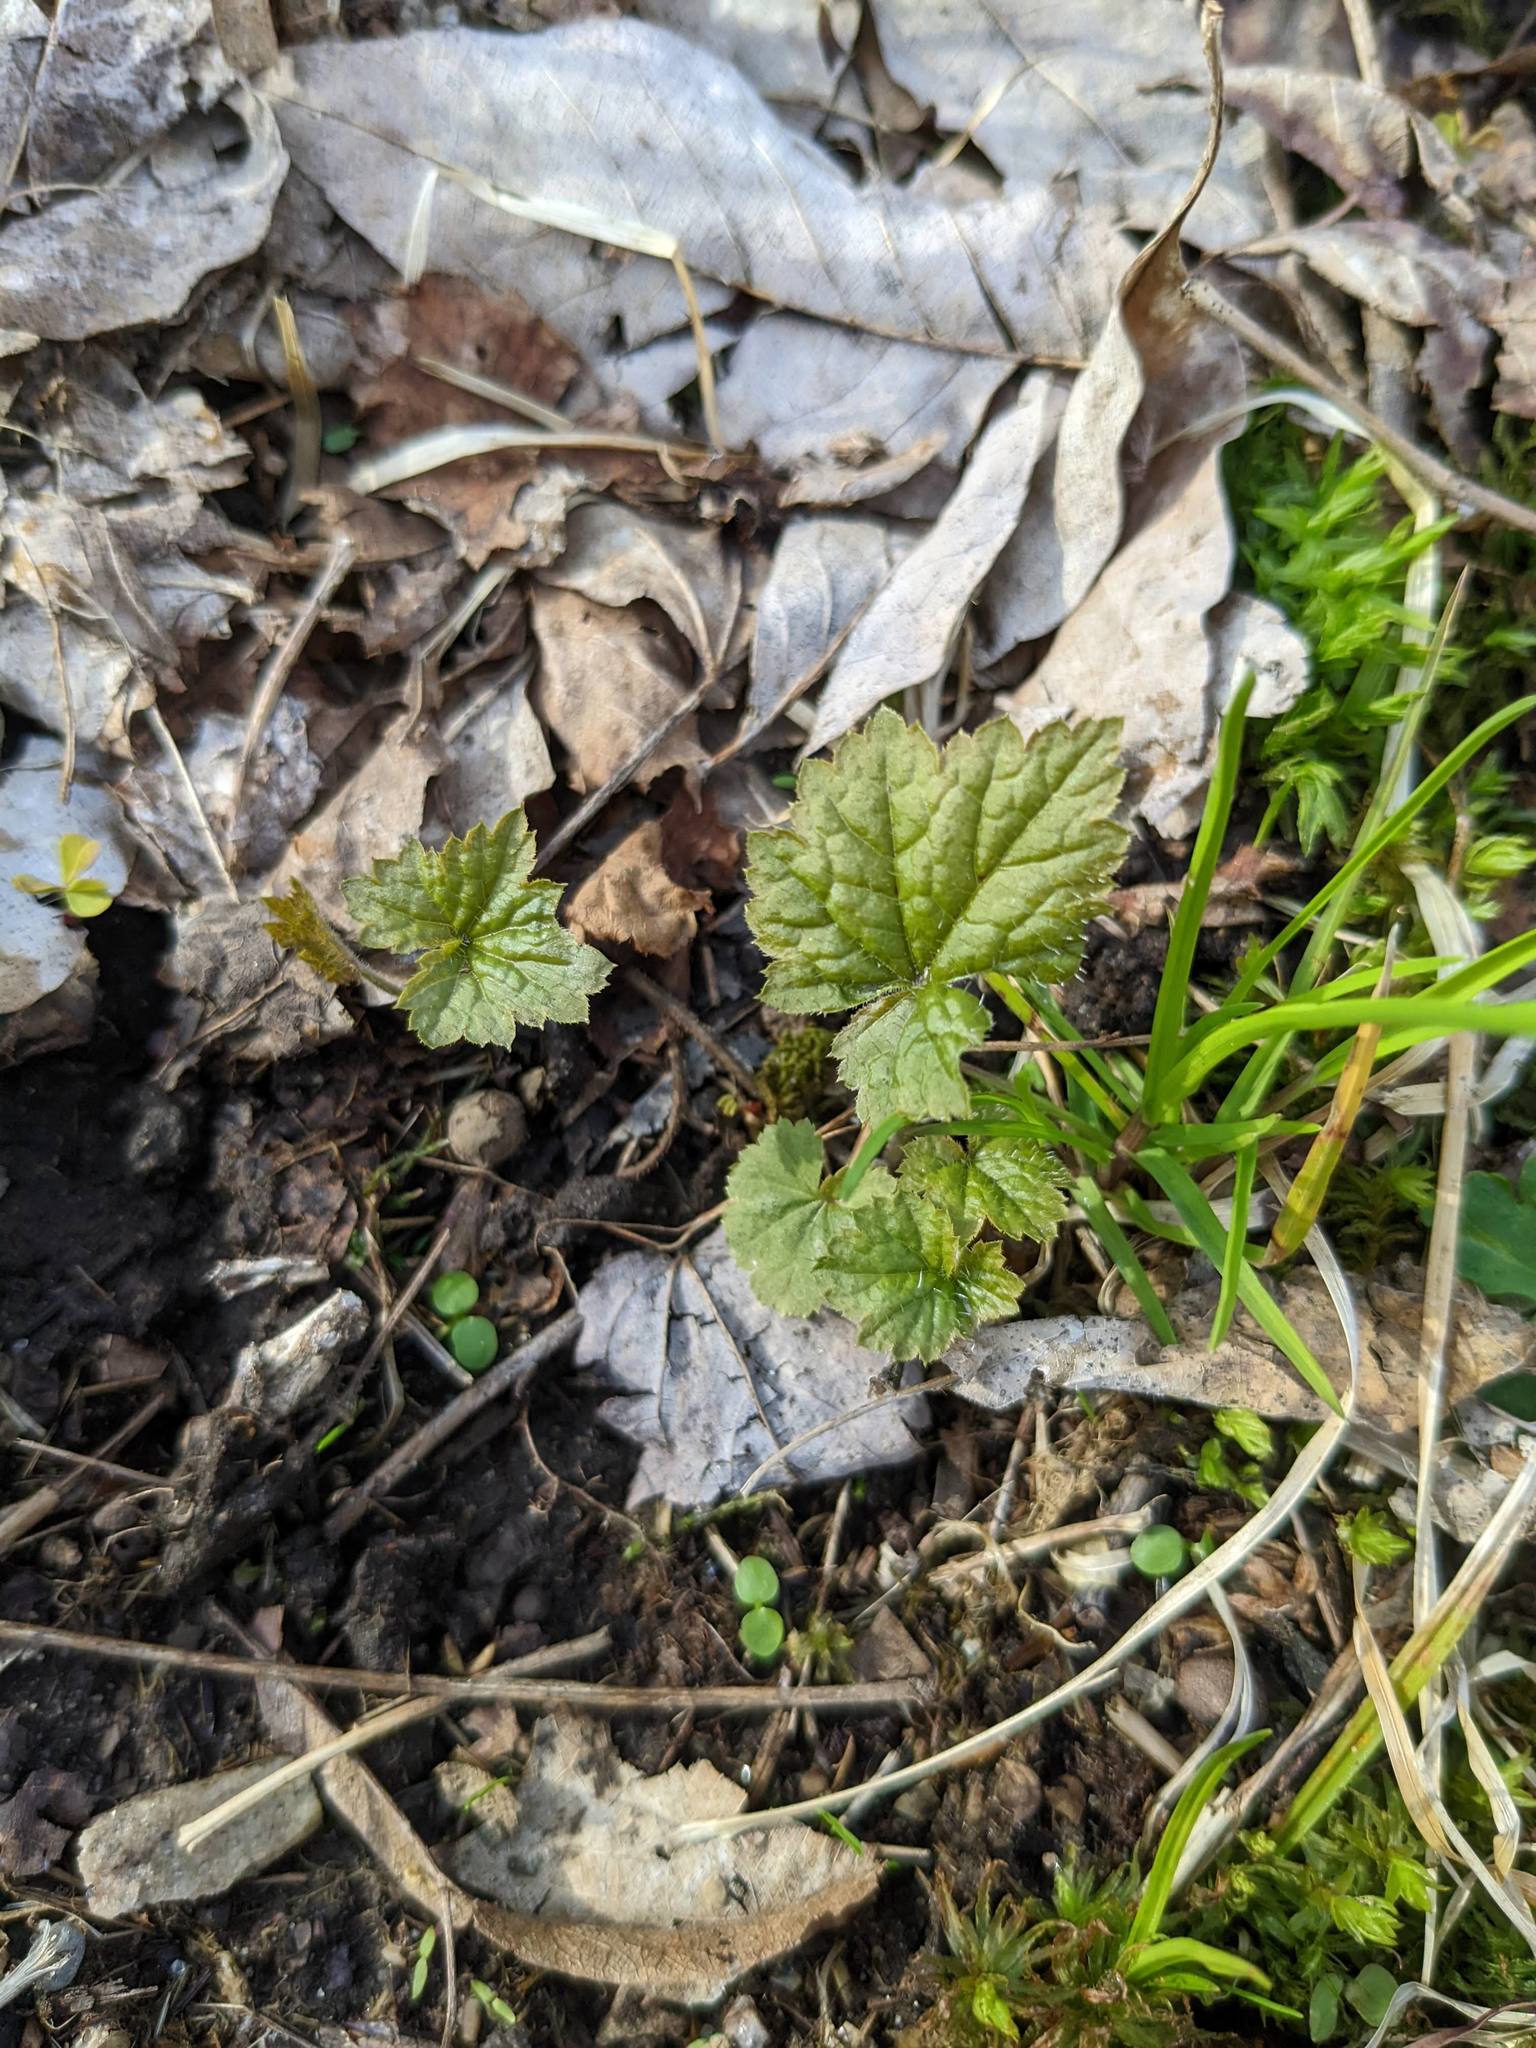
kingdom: Plantae
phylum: Tracheophyta
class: Magnoliopsida
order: Saxifragales
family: Saxifragaceae
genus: Tiarella
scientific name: Tiarella stolonifera
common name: Stoloniferous foamflower
